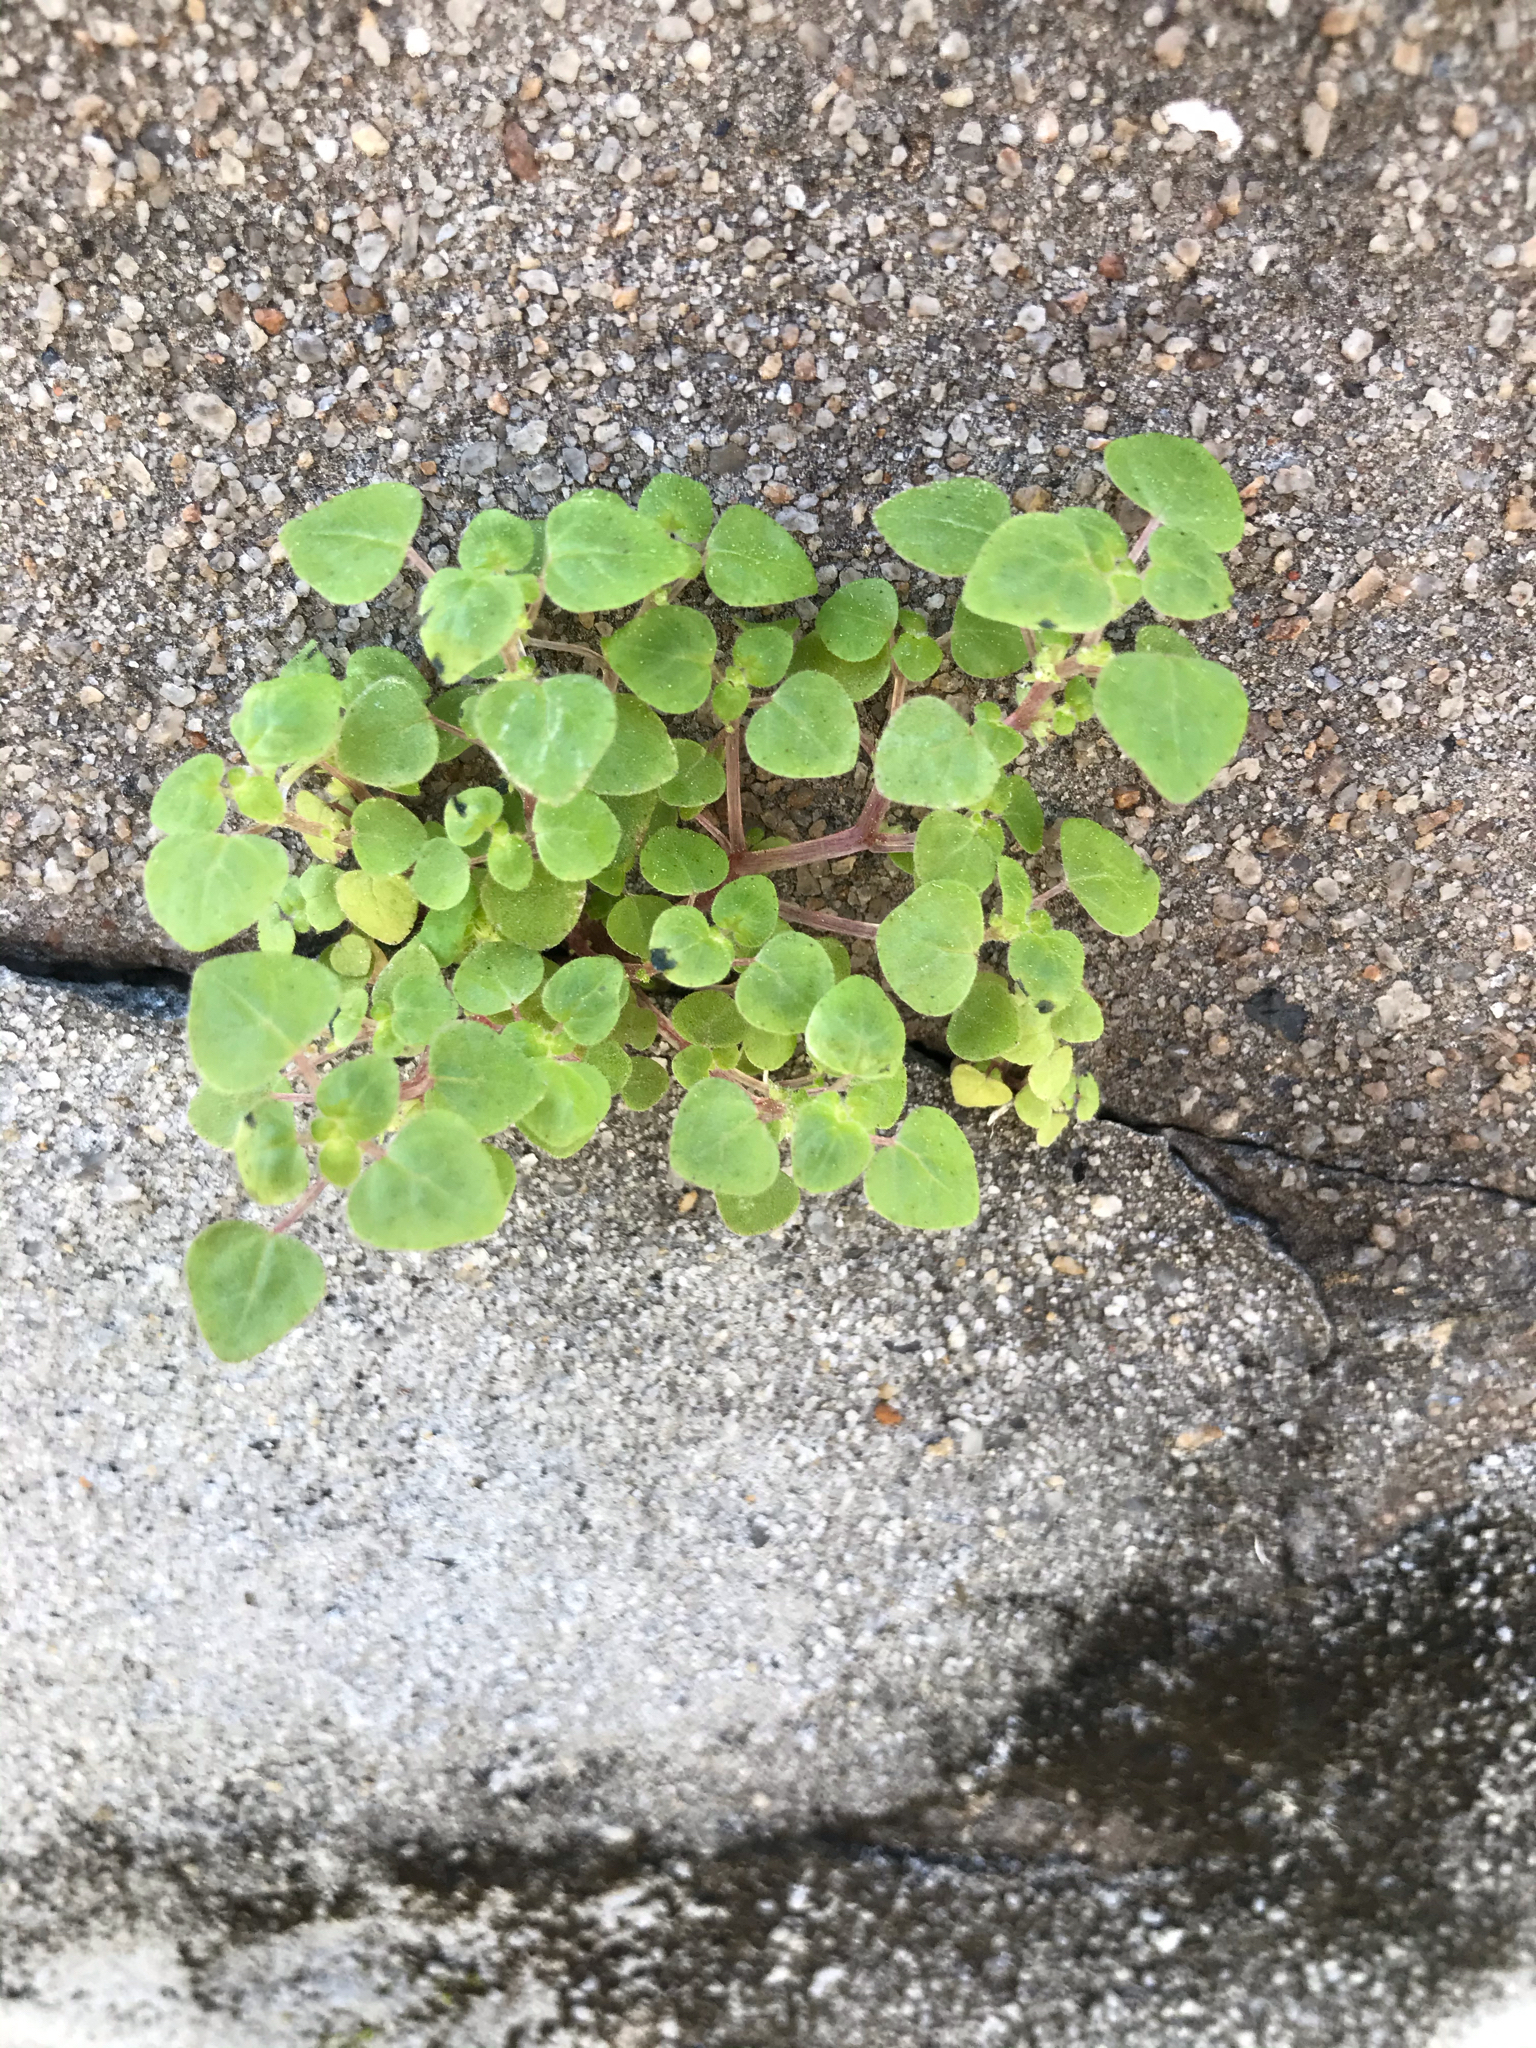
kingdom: Plantae
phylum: Tracheophyta
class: Magnoliopsida
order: Rosales
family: Urticaceae
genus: Parietaria
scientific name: Parietaria floridana
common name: Florida pellitory
